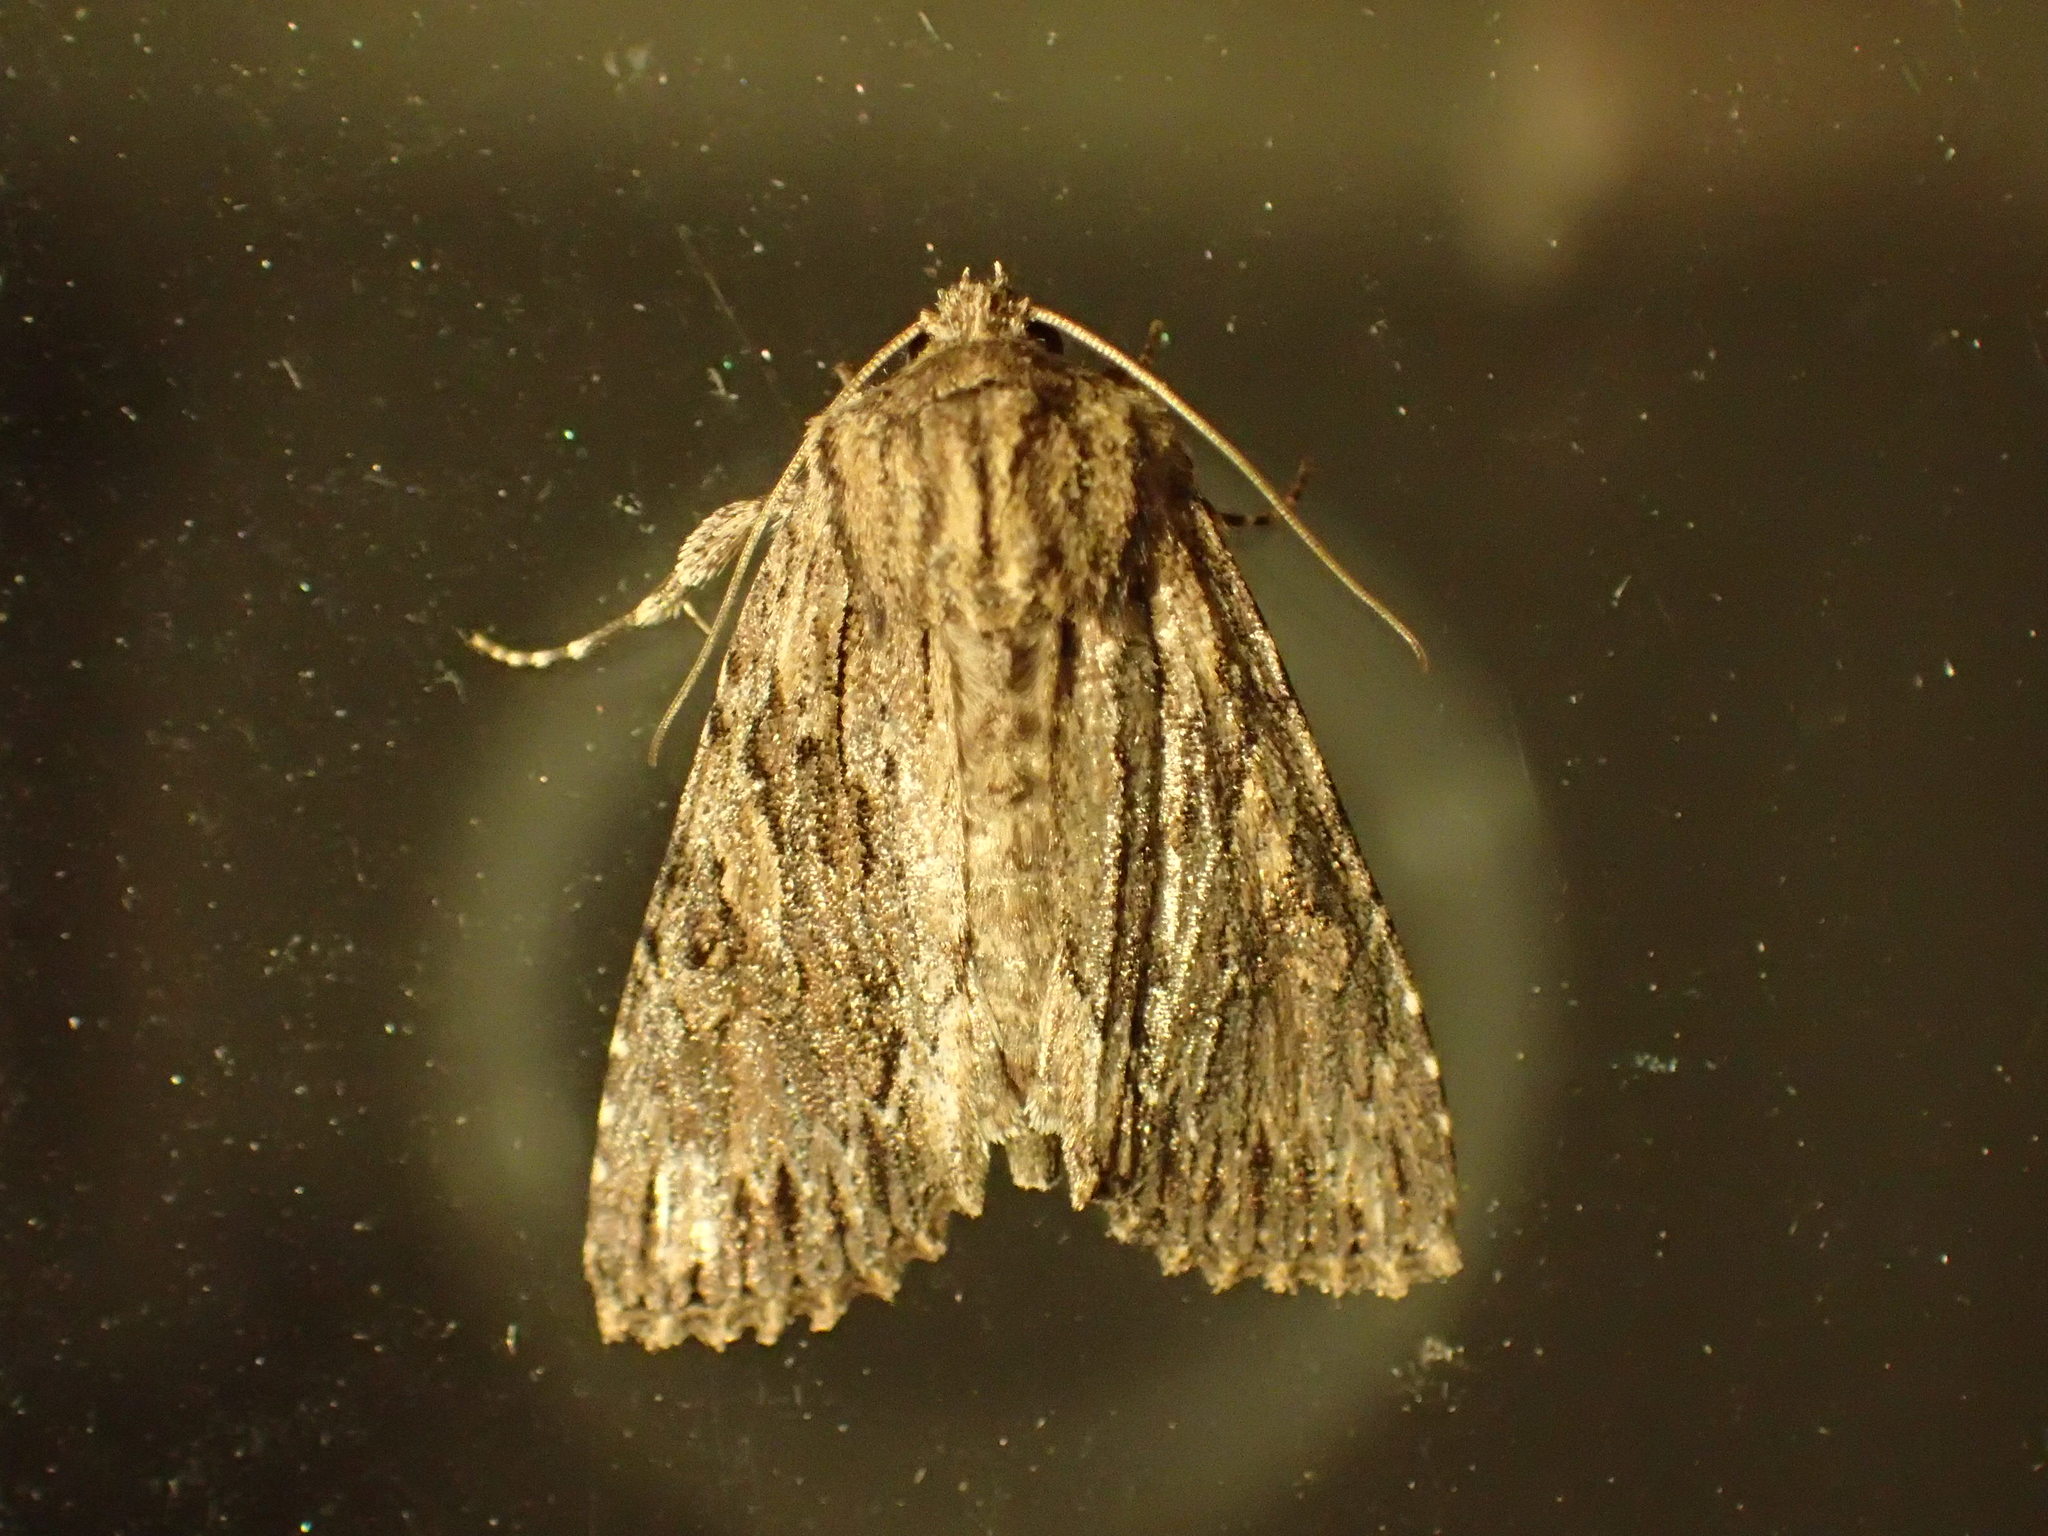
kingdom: Animalia
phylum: Arthropoda
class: Insecta
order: Lepidoptera
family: Noctuidae
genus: Achatia
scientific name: Achatia confusa
